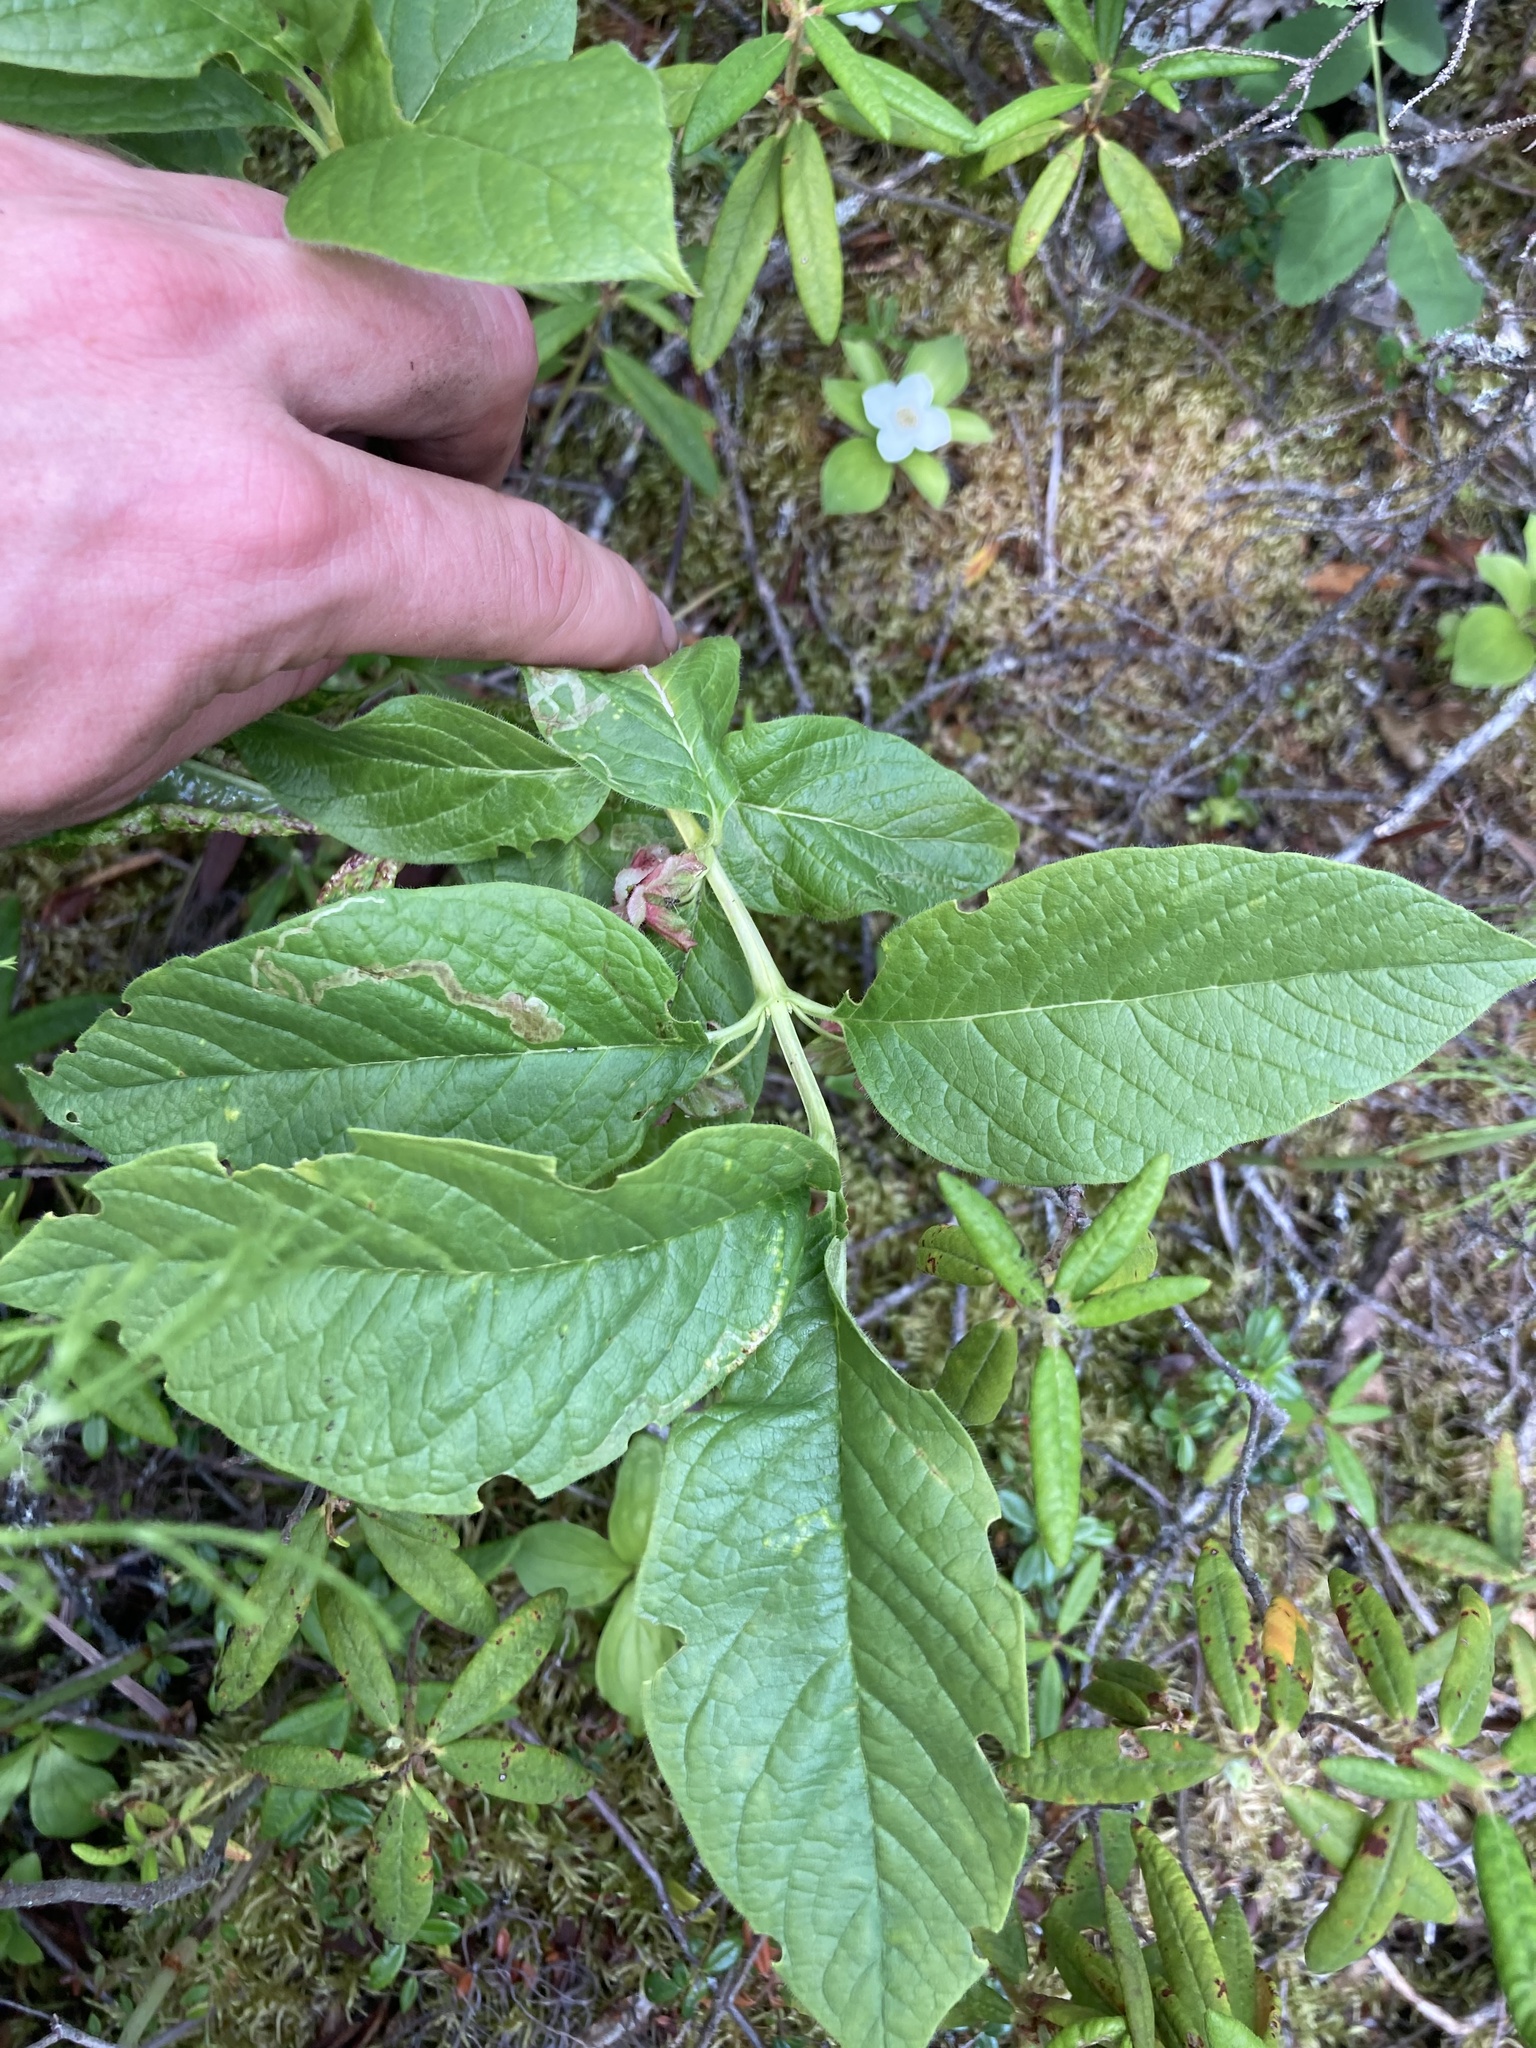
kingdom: Plantae
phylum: Tracheophyta
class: Magnoliopsida
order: Dipsacales
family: Caprifoliaceae
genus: Lonicera
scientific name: Lonicera involucrata
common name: Californian honeysuckle
